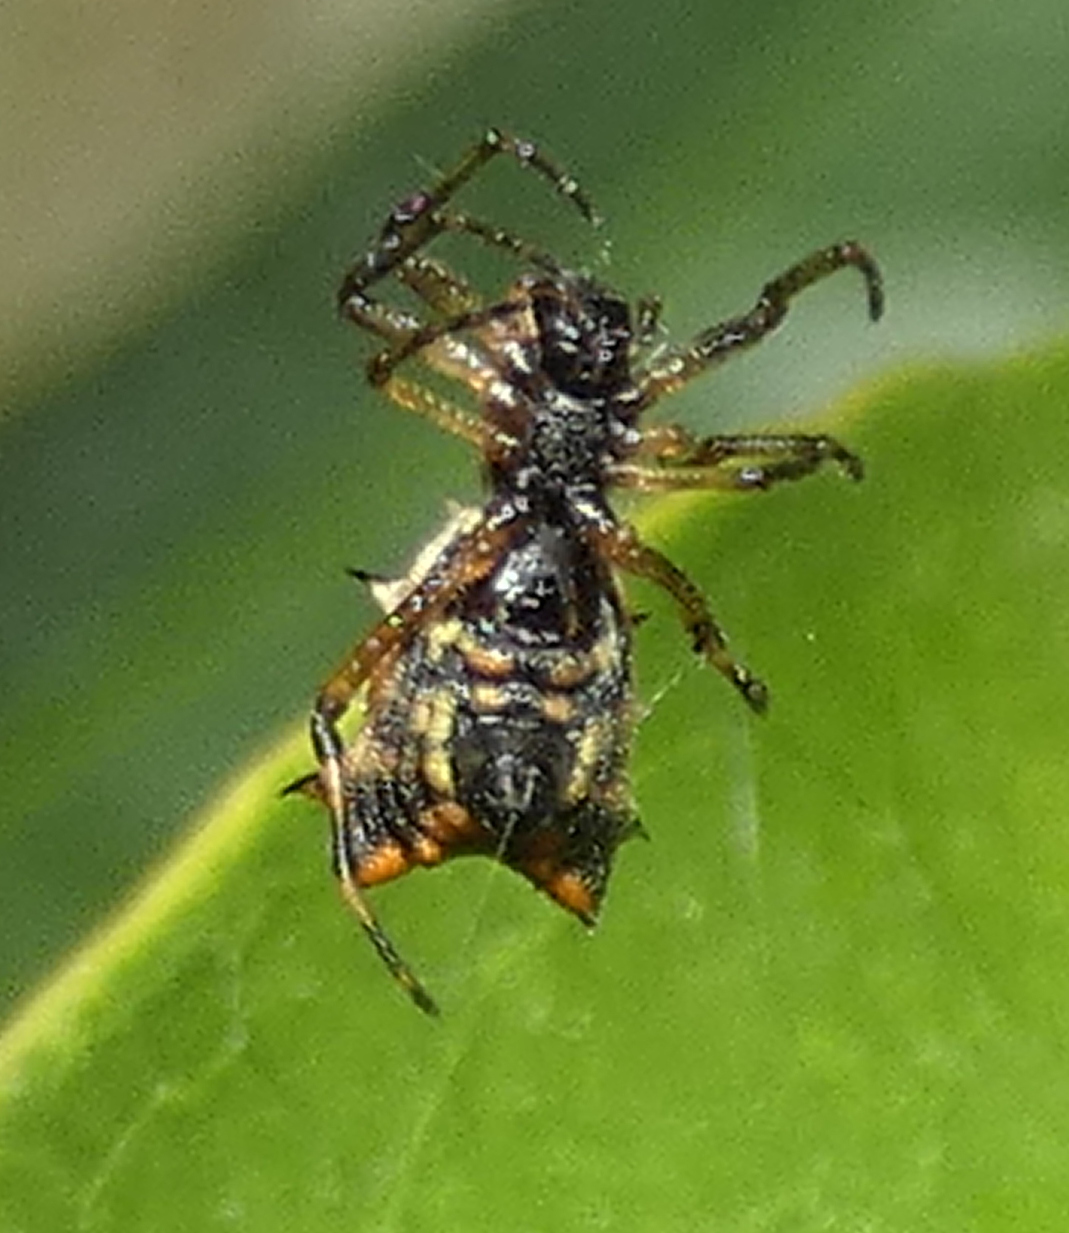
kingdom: Animalia
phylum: Arthropoda
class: Arachnida
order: Araneae
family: Araneidae
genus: Micrathena
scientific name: Micrathena picta
